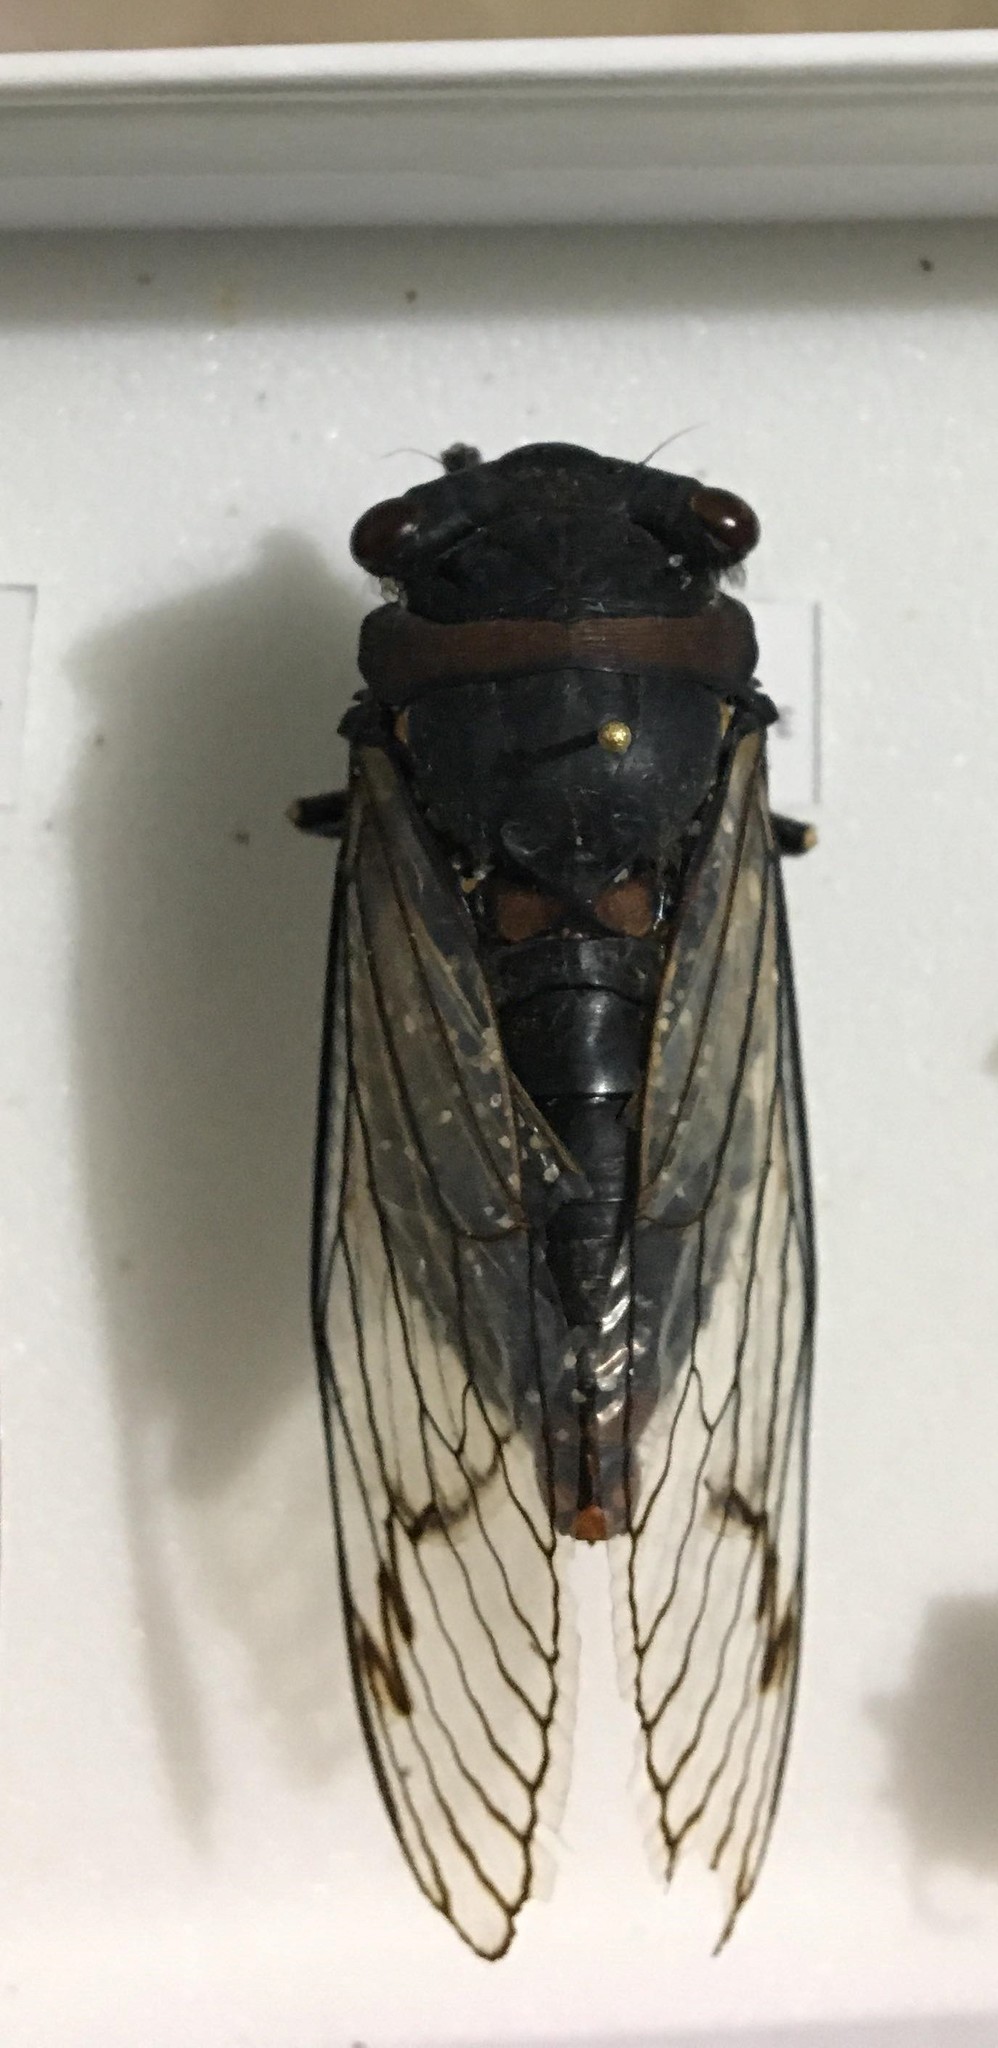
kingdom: Animalia
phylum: Arthropoda
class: Insecta
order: Hemiptera
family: Cicadidae
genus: Psaltoda
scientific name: Psaltoda moerens
